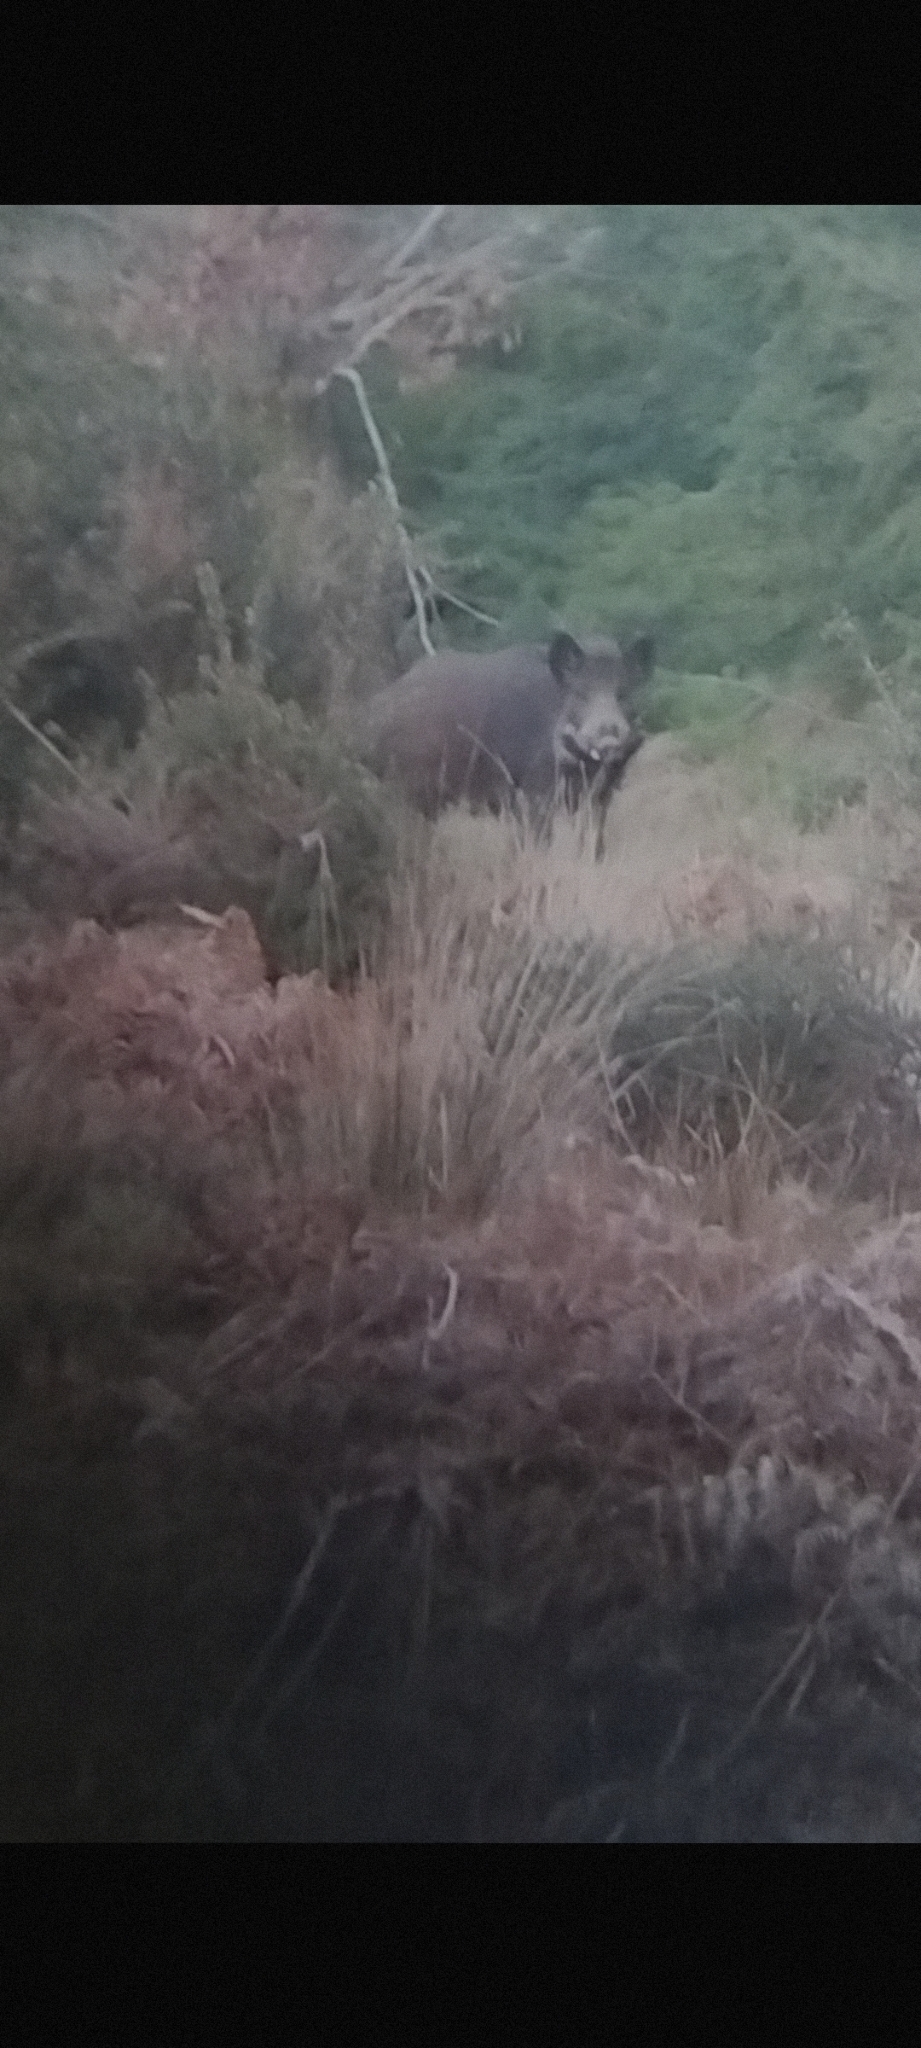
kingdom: Animalia
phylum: Chordata
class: Mammalia
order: Artiodactyla
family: Suidae
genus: Sus
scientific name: Sus scrofa
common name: Wild boar
